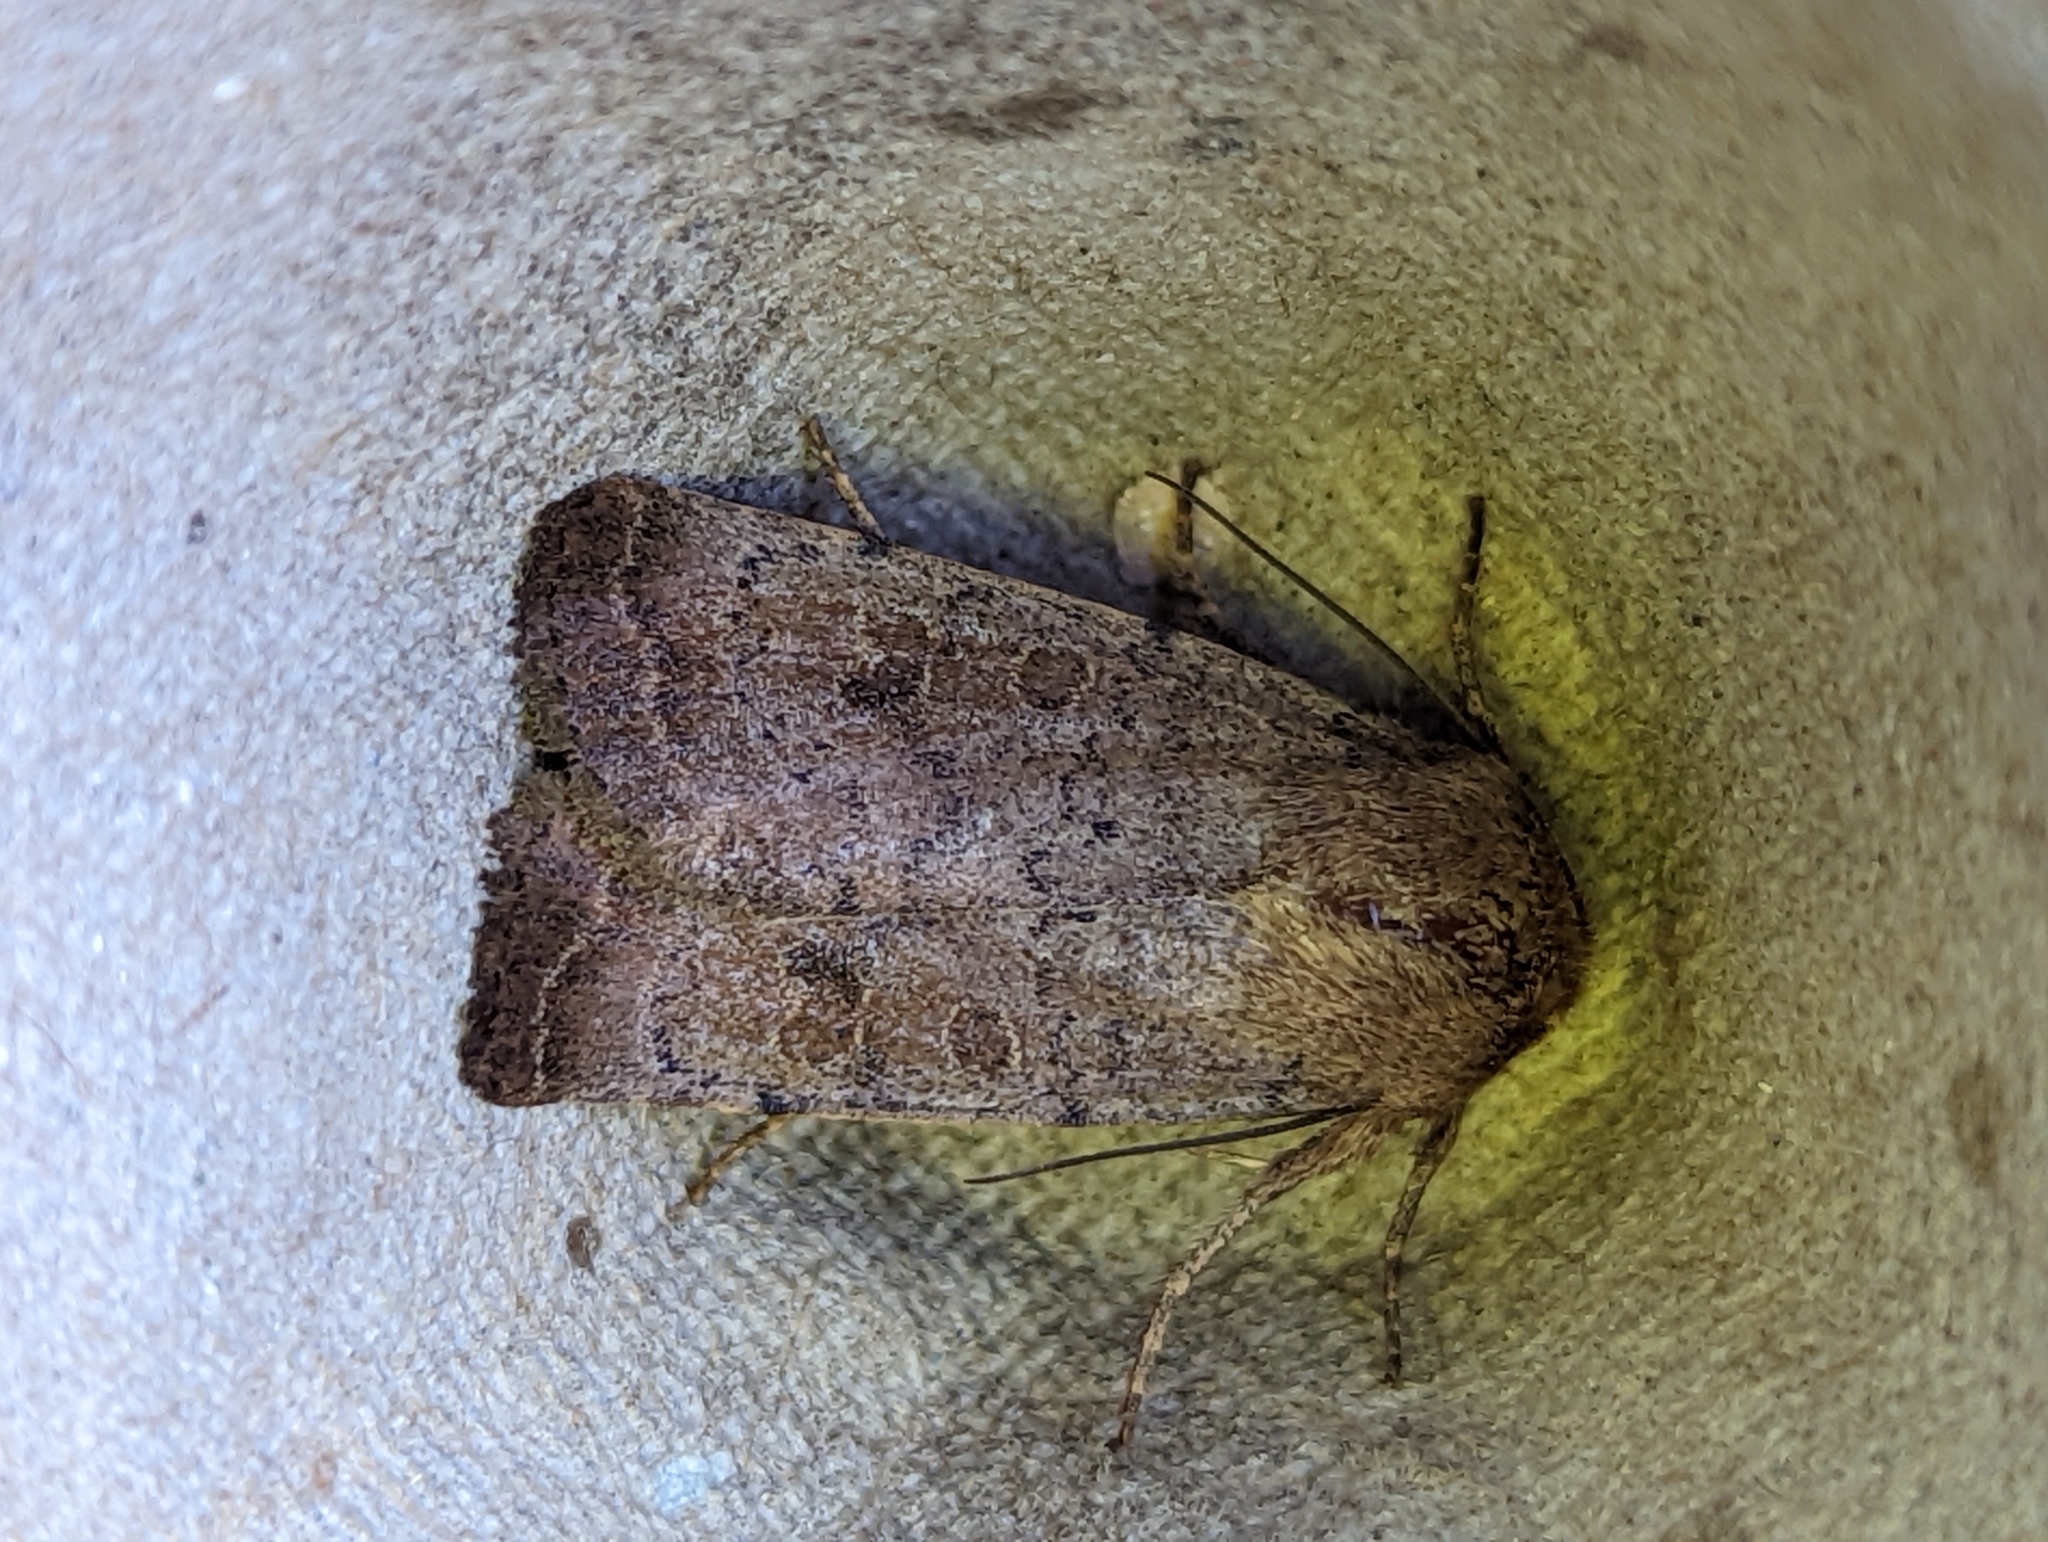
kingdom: Animalia
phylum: Arthropoda
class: Insecta
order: Lepidoptera
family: Noctuidae
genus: Hoplodrina
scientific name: Hoplodrina blanda
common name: Rustic
